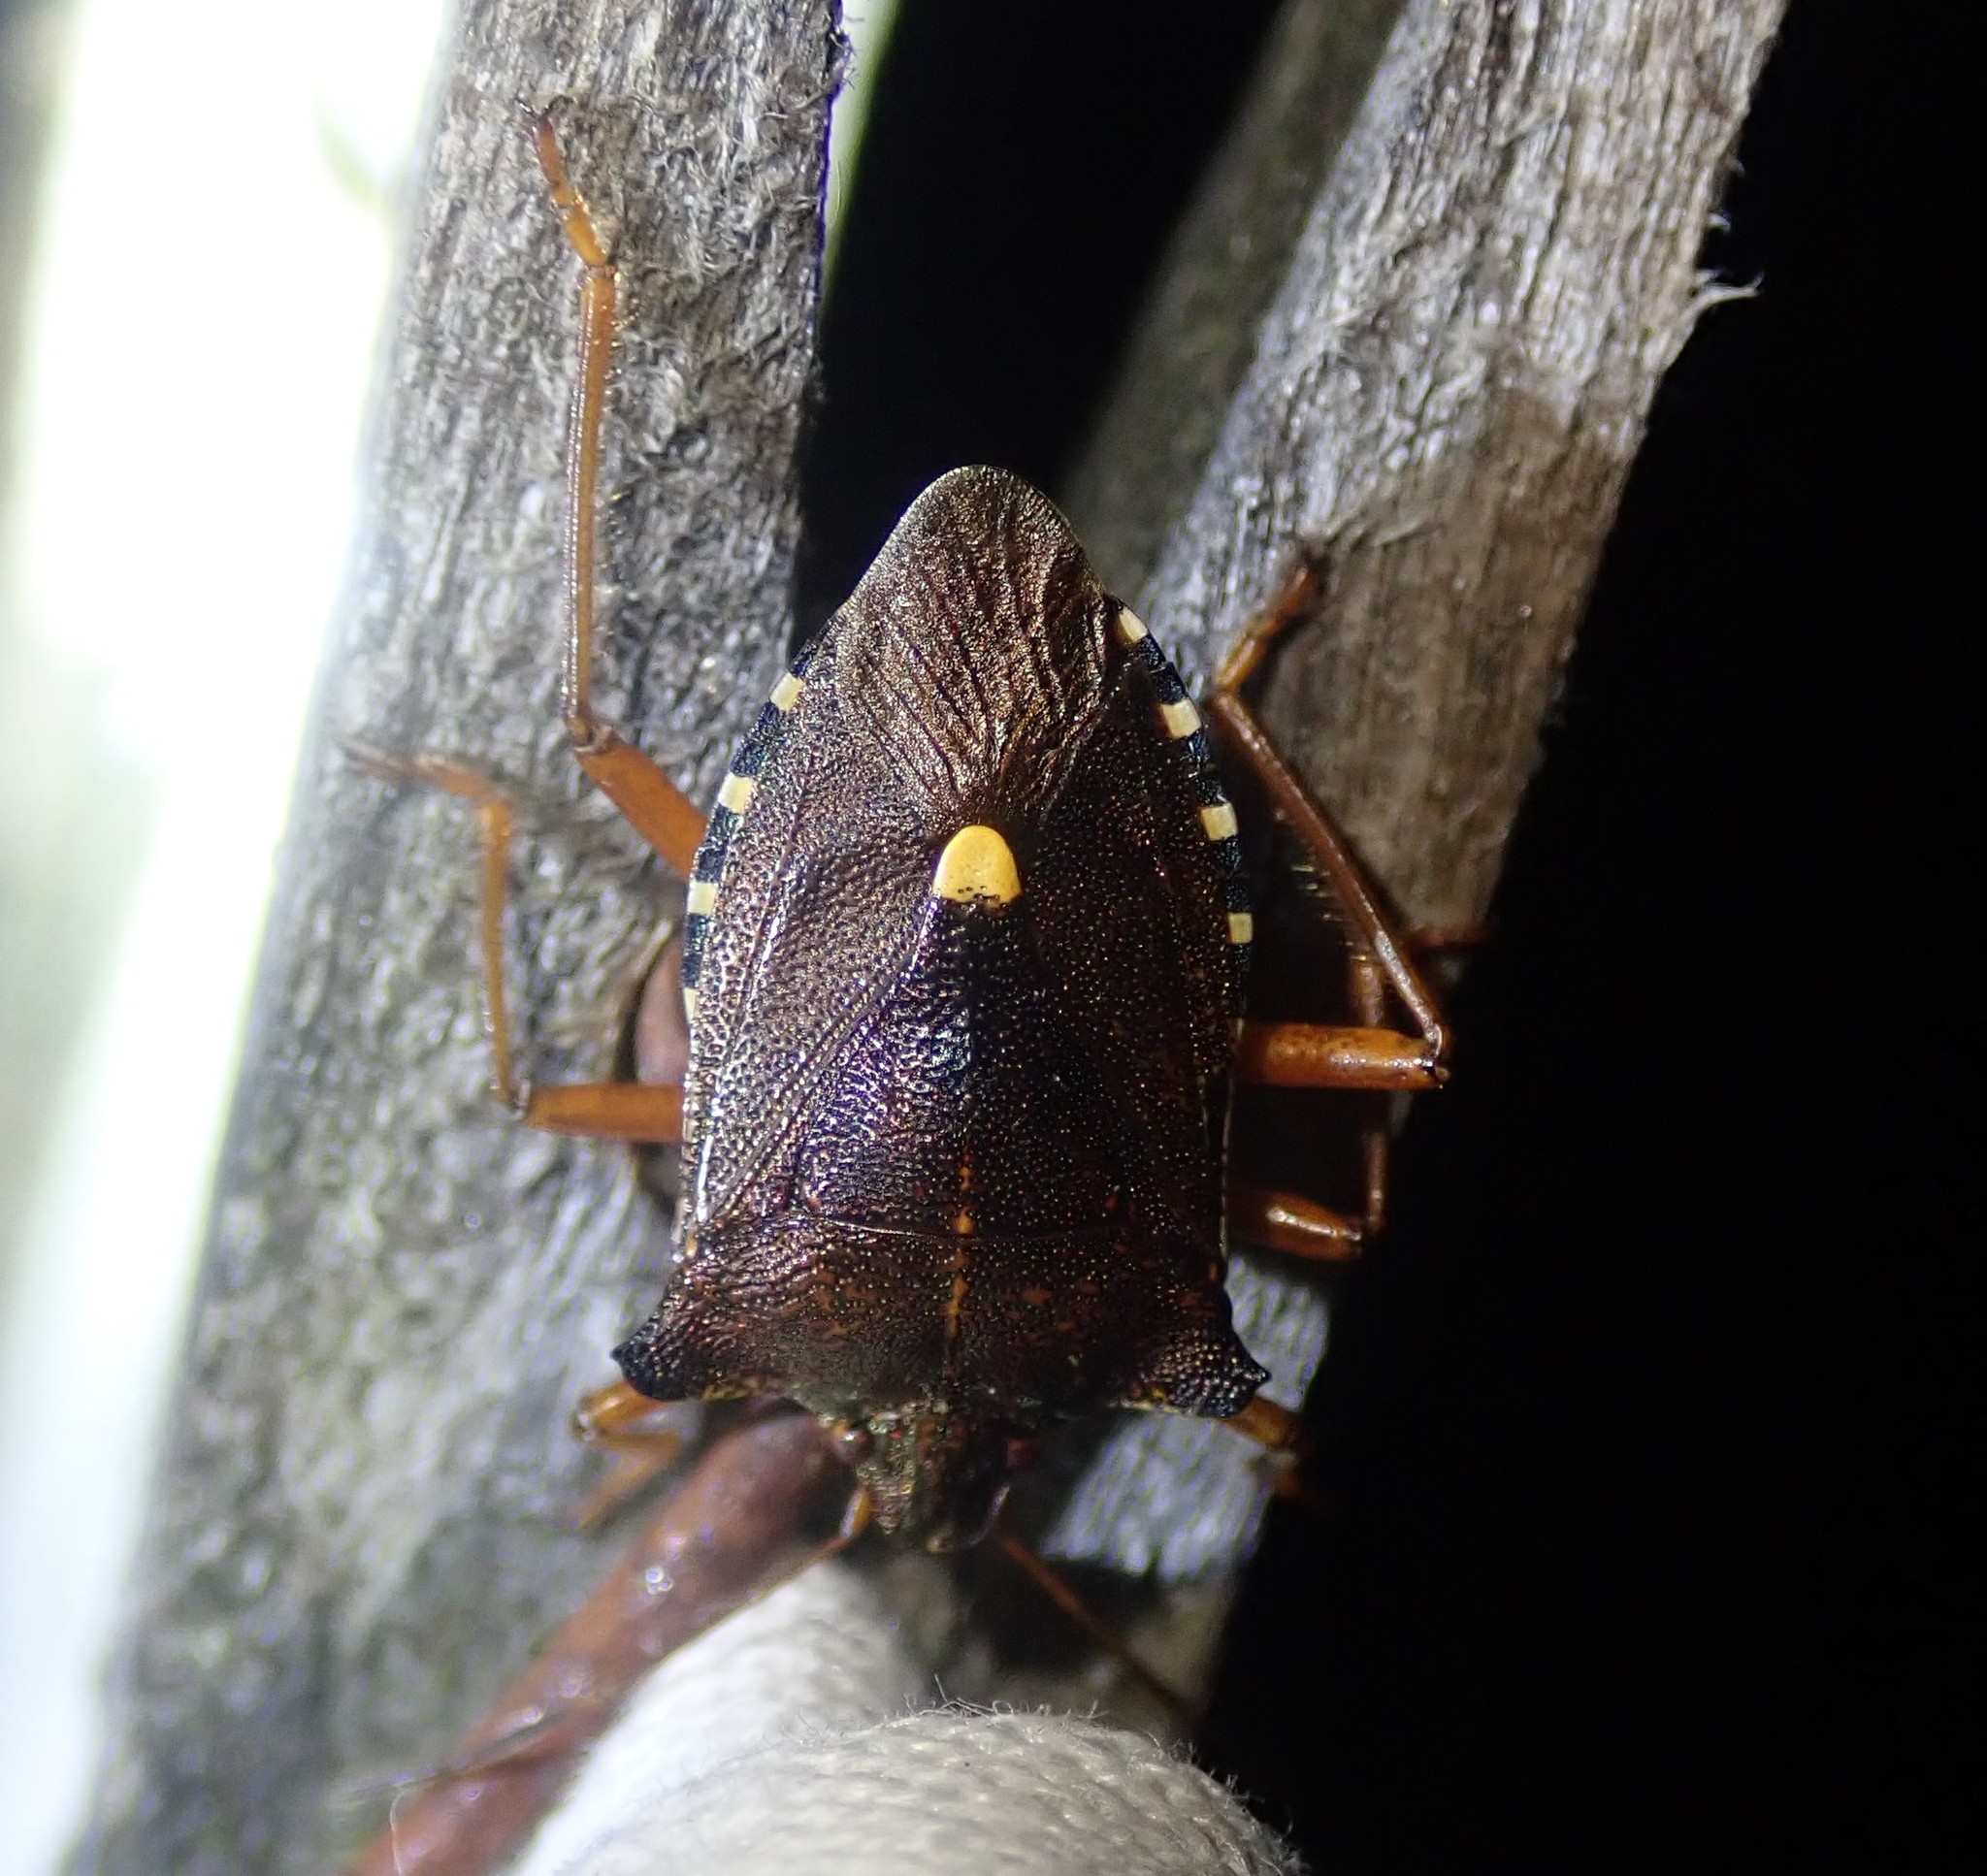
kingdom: Animalia
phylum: Arthropoda
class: Insecta
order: Hemiptera
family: Pentatomidae
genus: Pentatoma
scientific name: Pentatoma rufipes
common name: Forest bug
